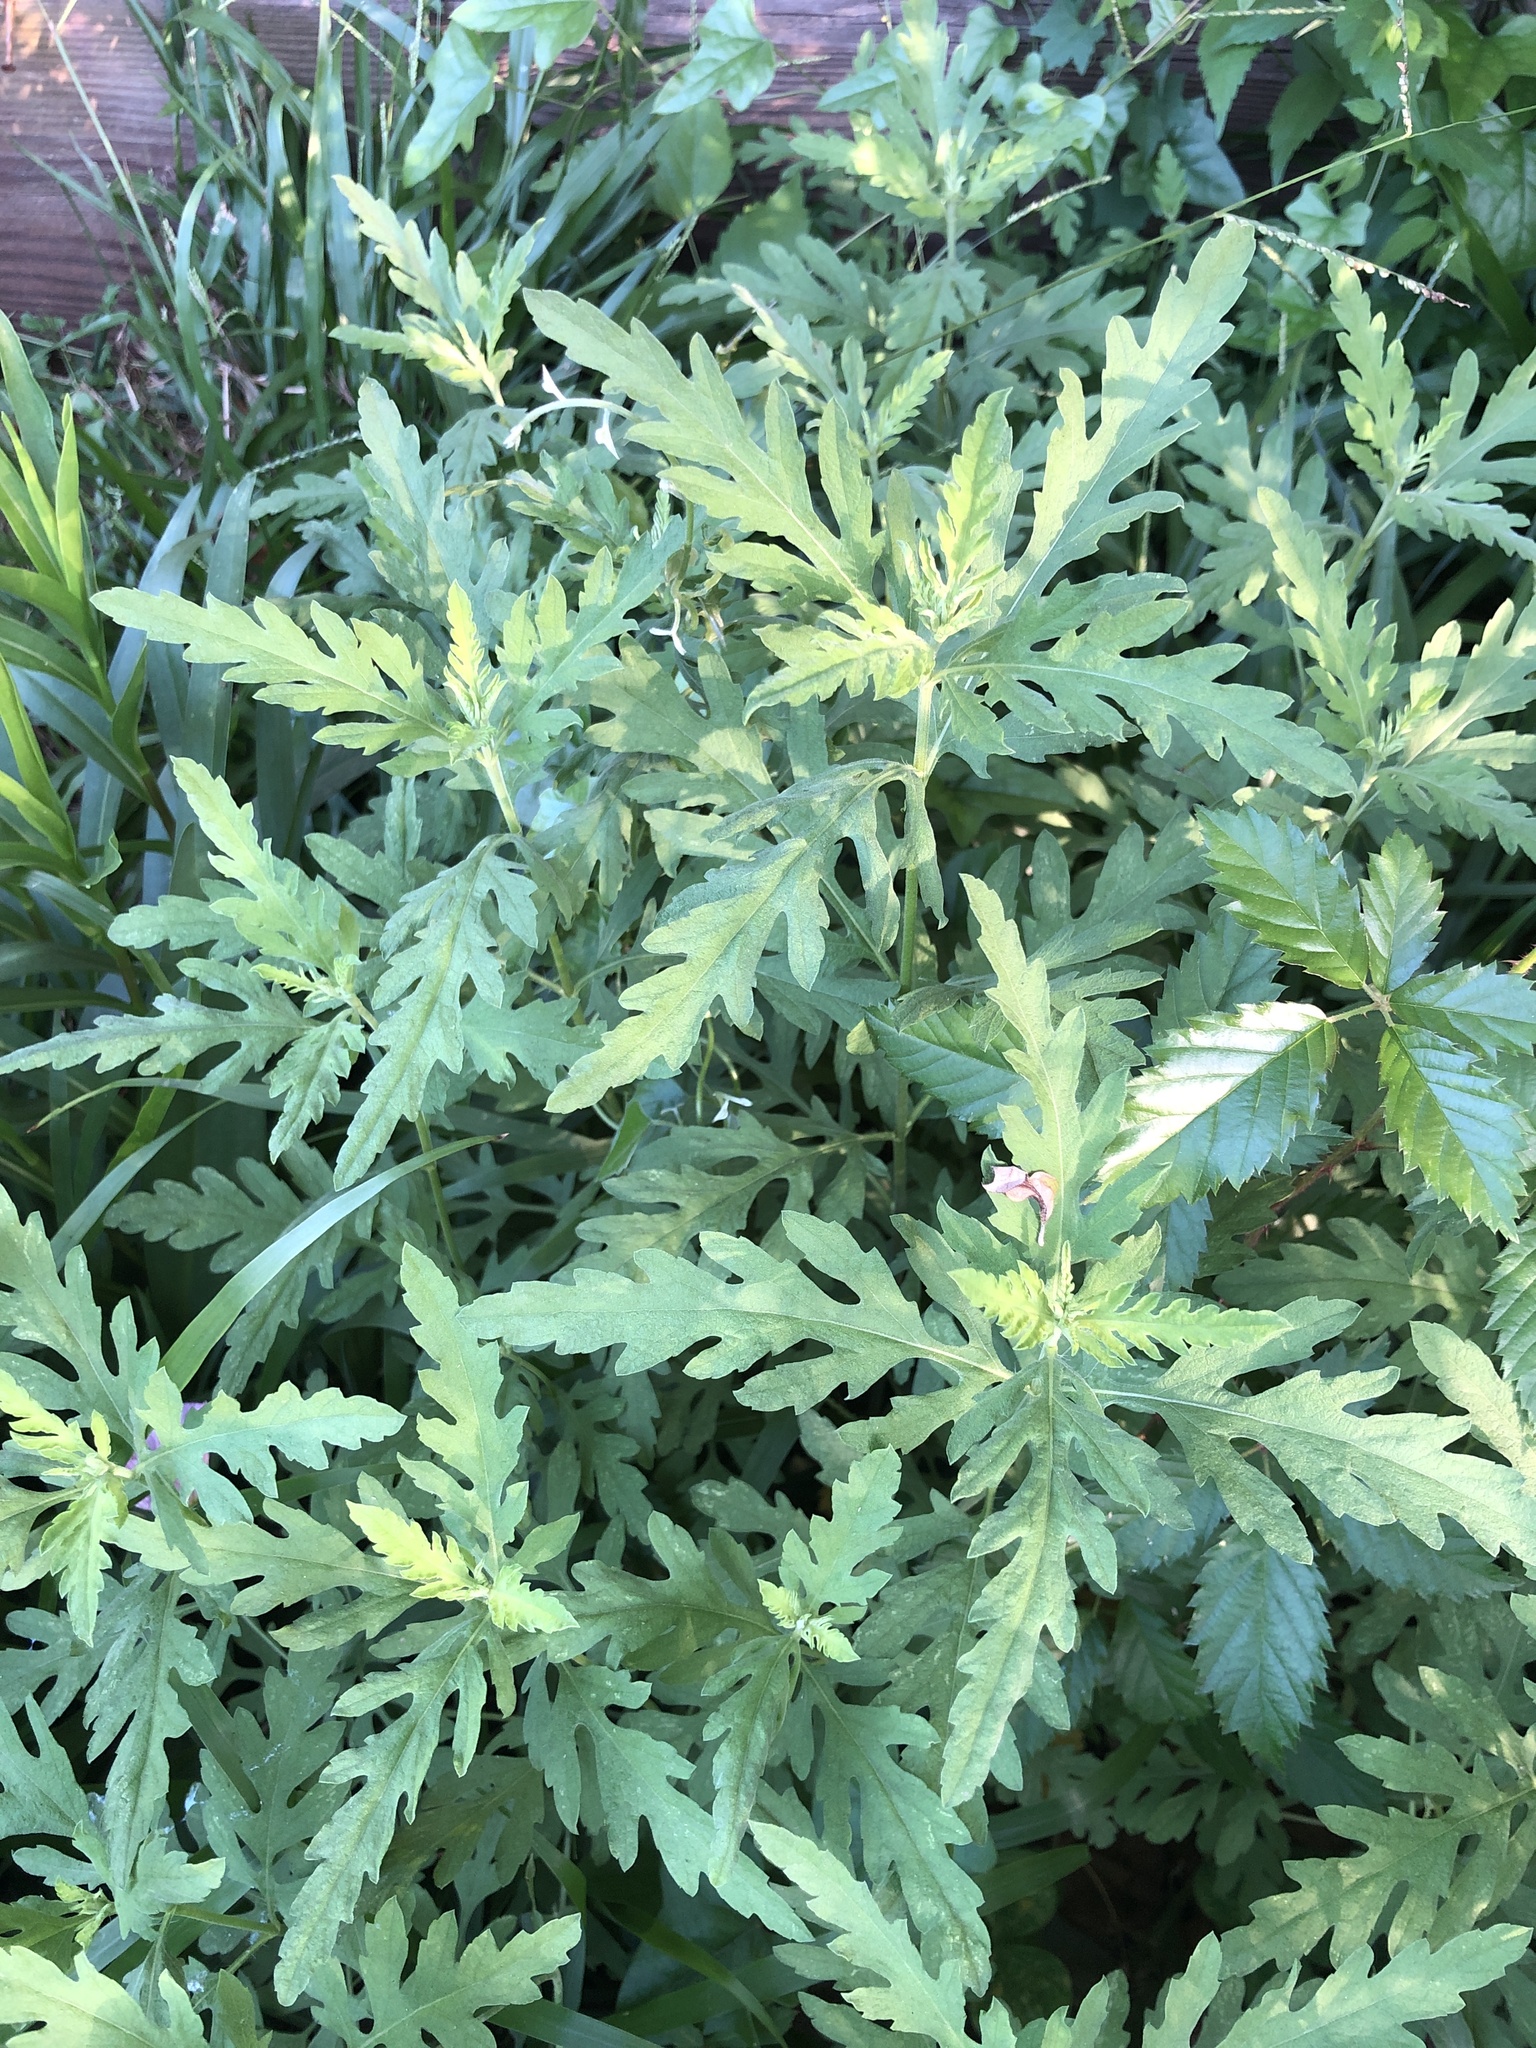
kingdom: Plantae
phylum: Tracheophyta
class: Magnoliopsida
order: Asterales
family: Asteraceae
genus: Ambrosia
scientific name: Ambrosia artemisiifolia
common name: Annual ragweed
